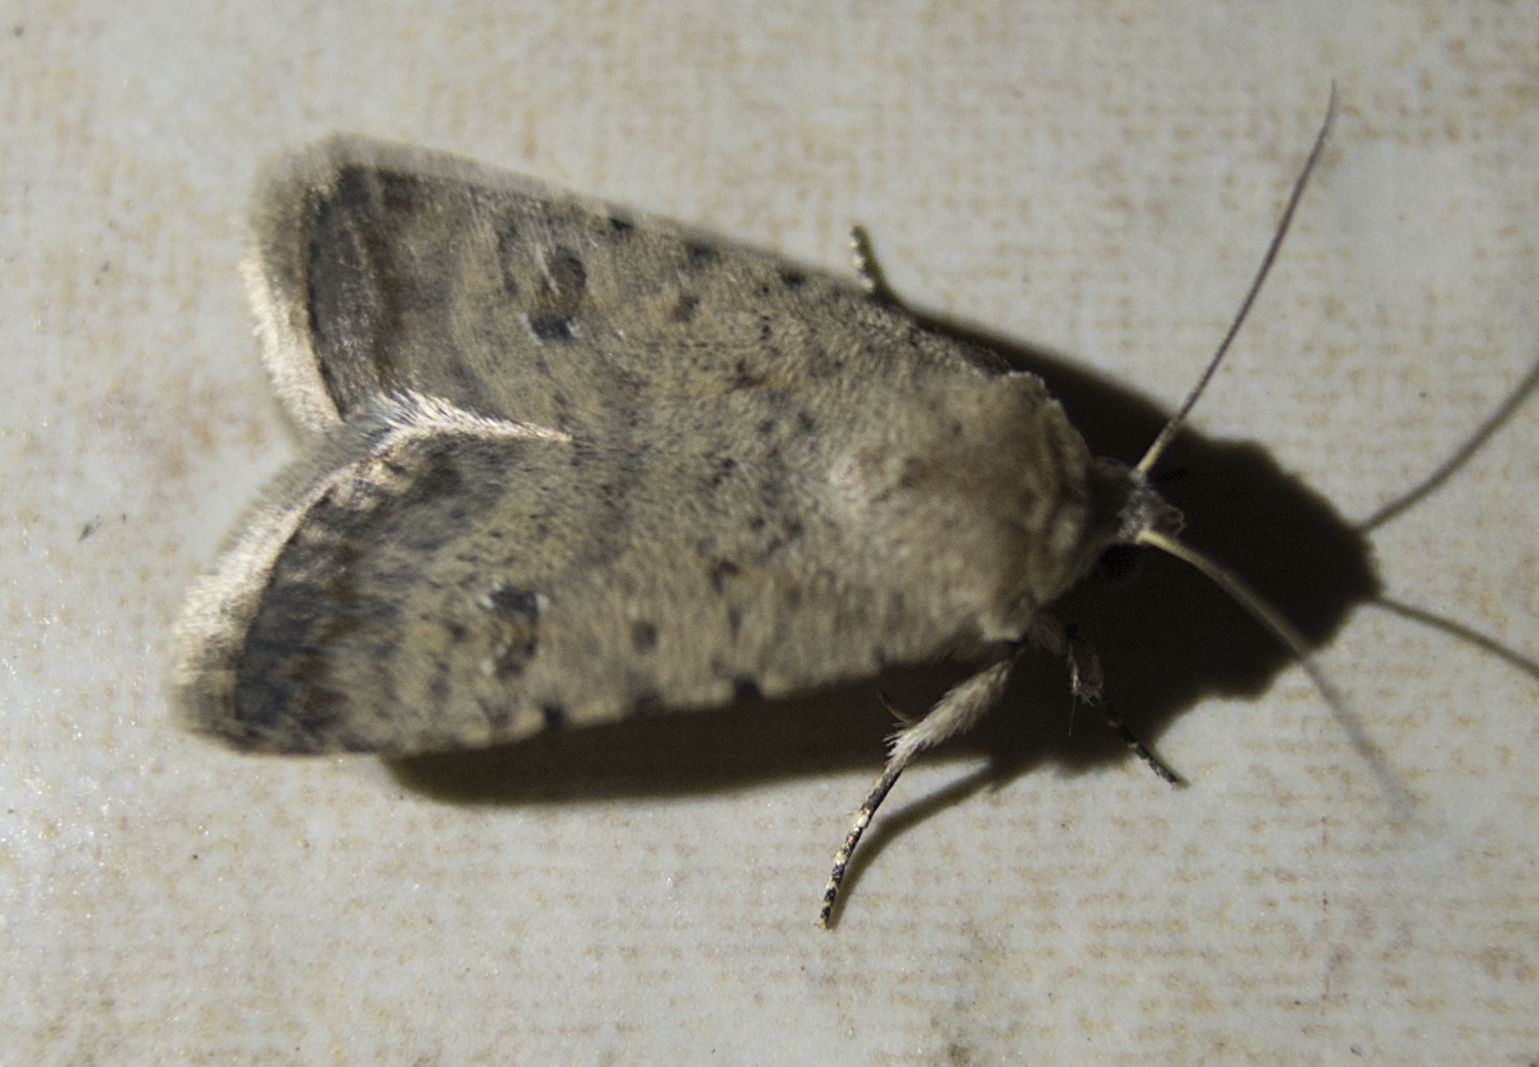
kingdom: Animalia
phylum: Arthropoda
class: Insecta
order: Lepidoptera
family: Noctuidae
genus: Caradrina
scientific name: Caradrina clavipalpis
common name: Pale mottled willow
